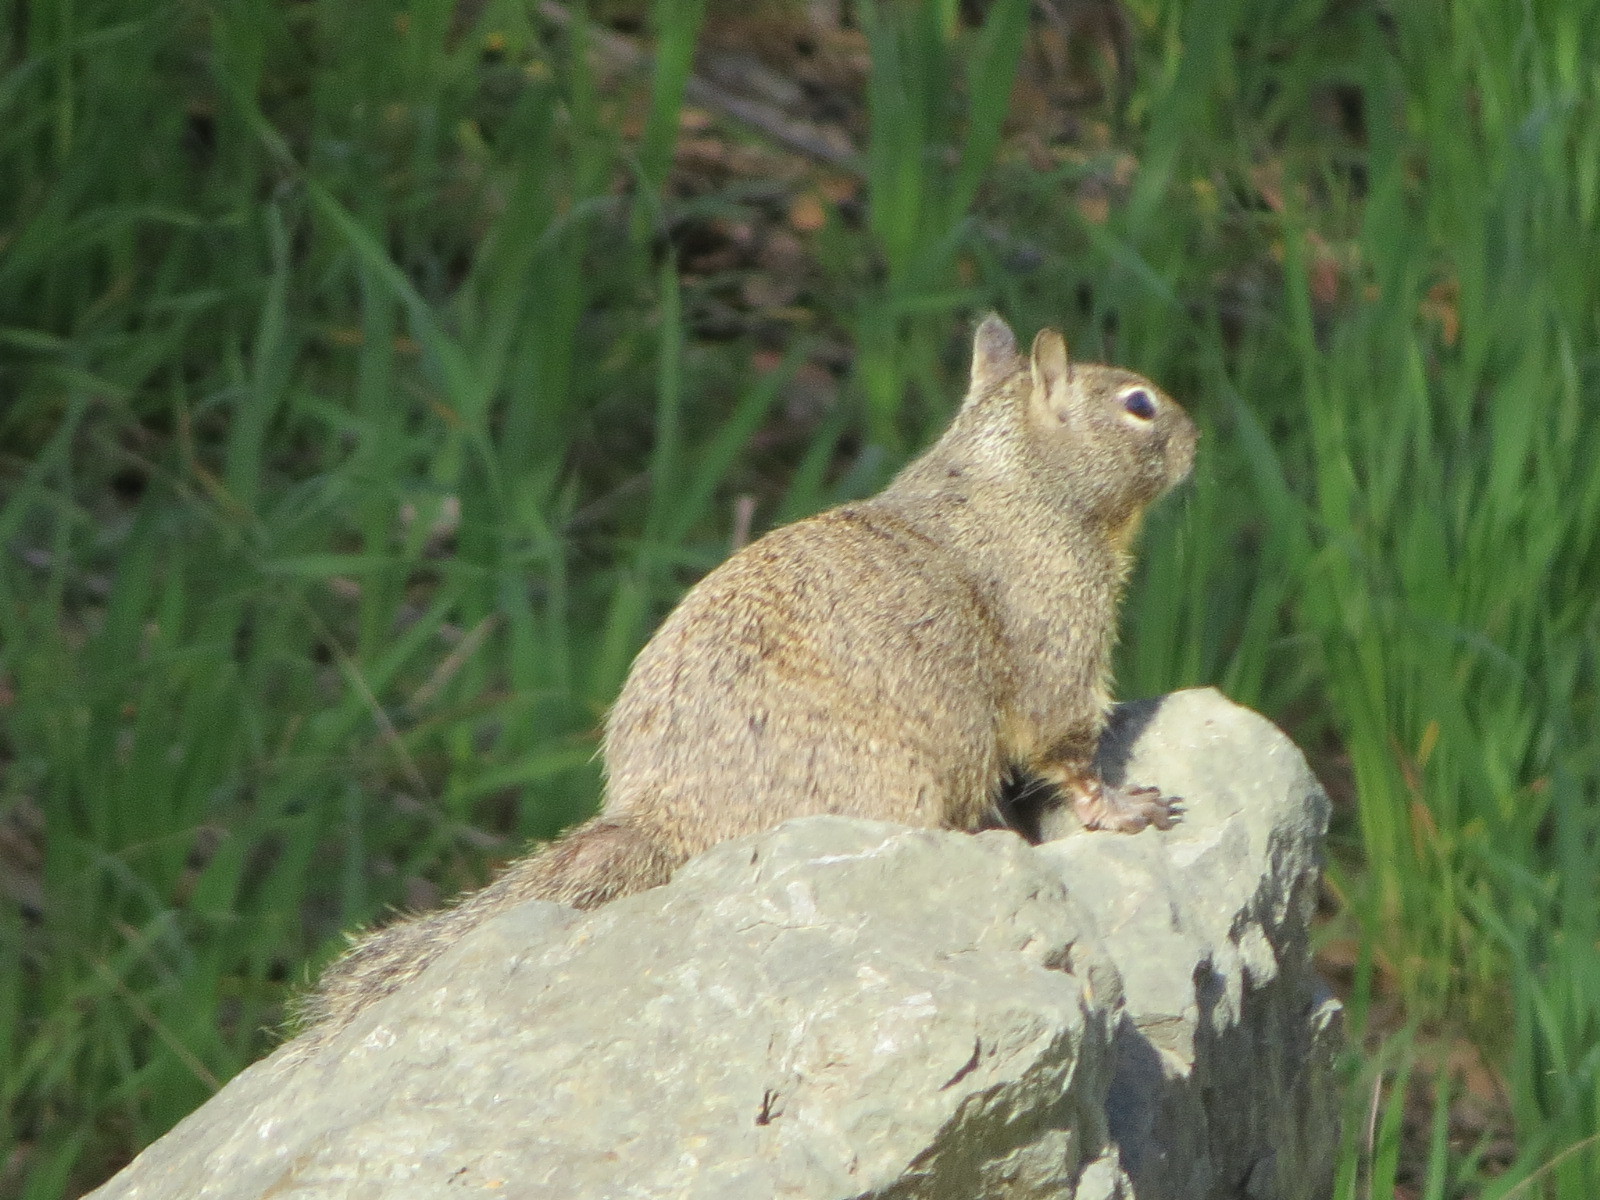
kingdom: Animalia
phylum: Chordata
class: Mammalia
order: Rodentia
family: Sciuridae
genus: Otospermophilus
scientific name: Otospermophilus beecheyi
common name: California ground squirrel
